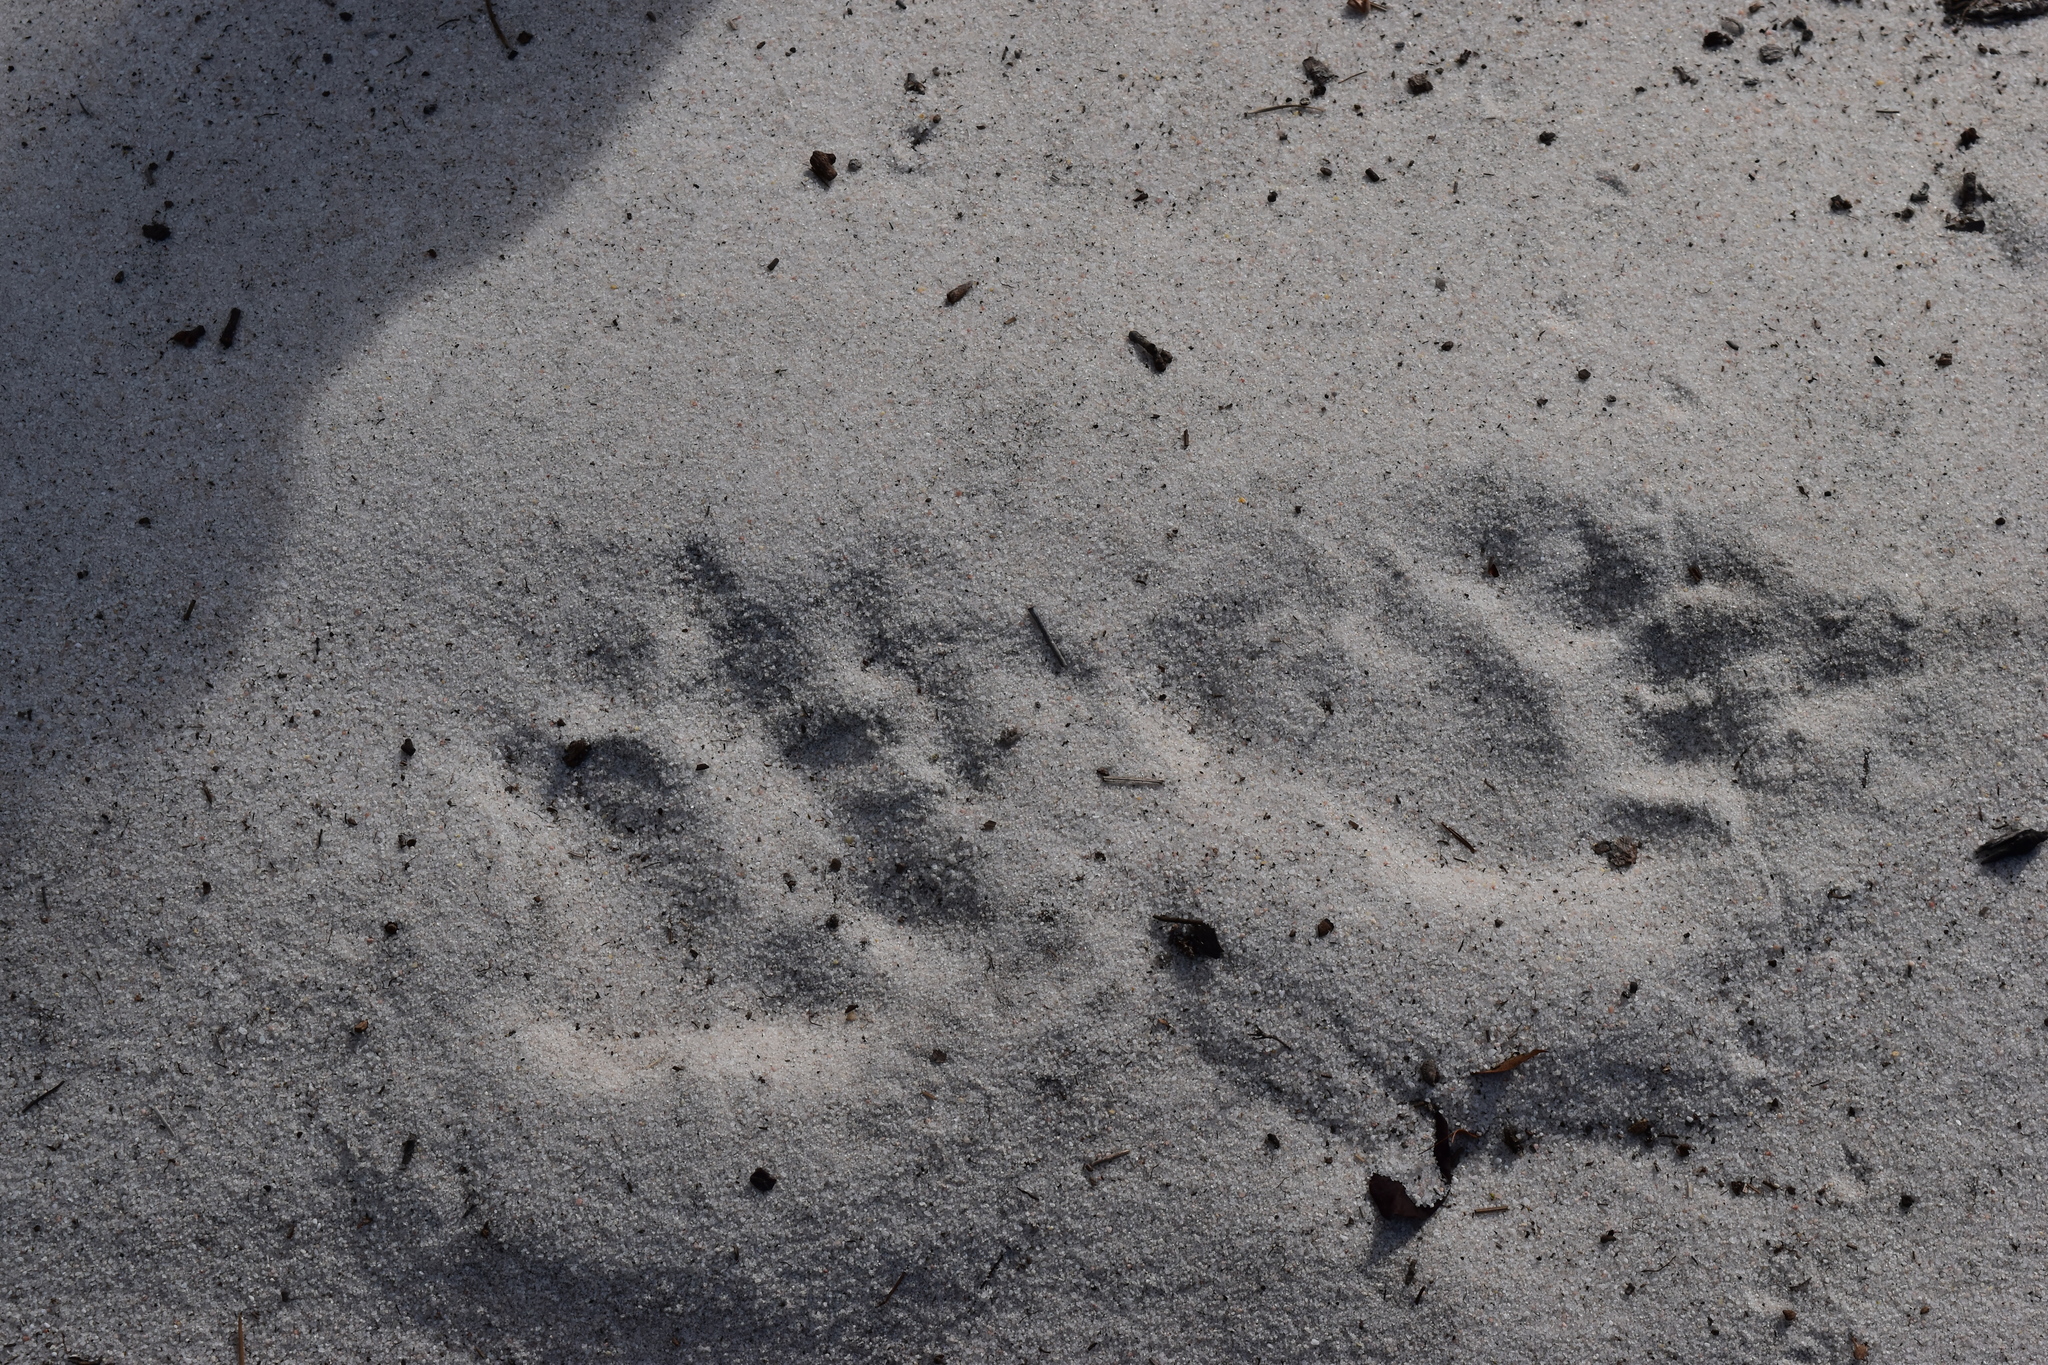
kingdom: Animalia
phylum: Chordata
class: Mammalia
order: Carnivora
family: Ursidae
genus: Ursus
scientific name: Ursus americanus
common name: American black bear
